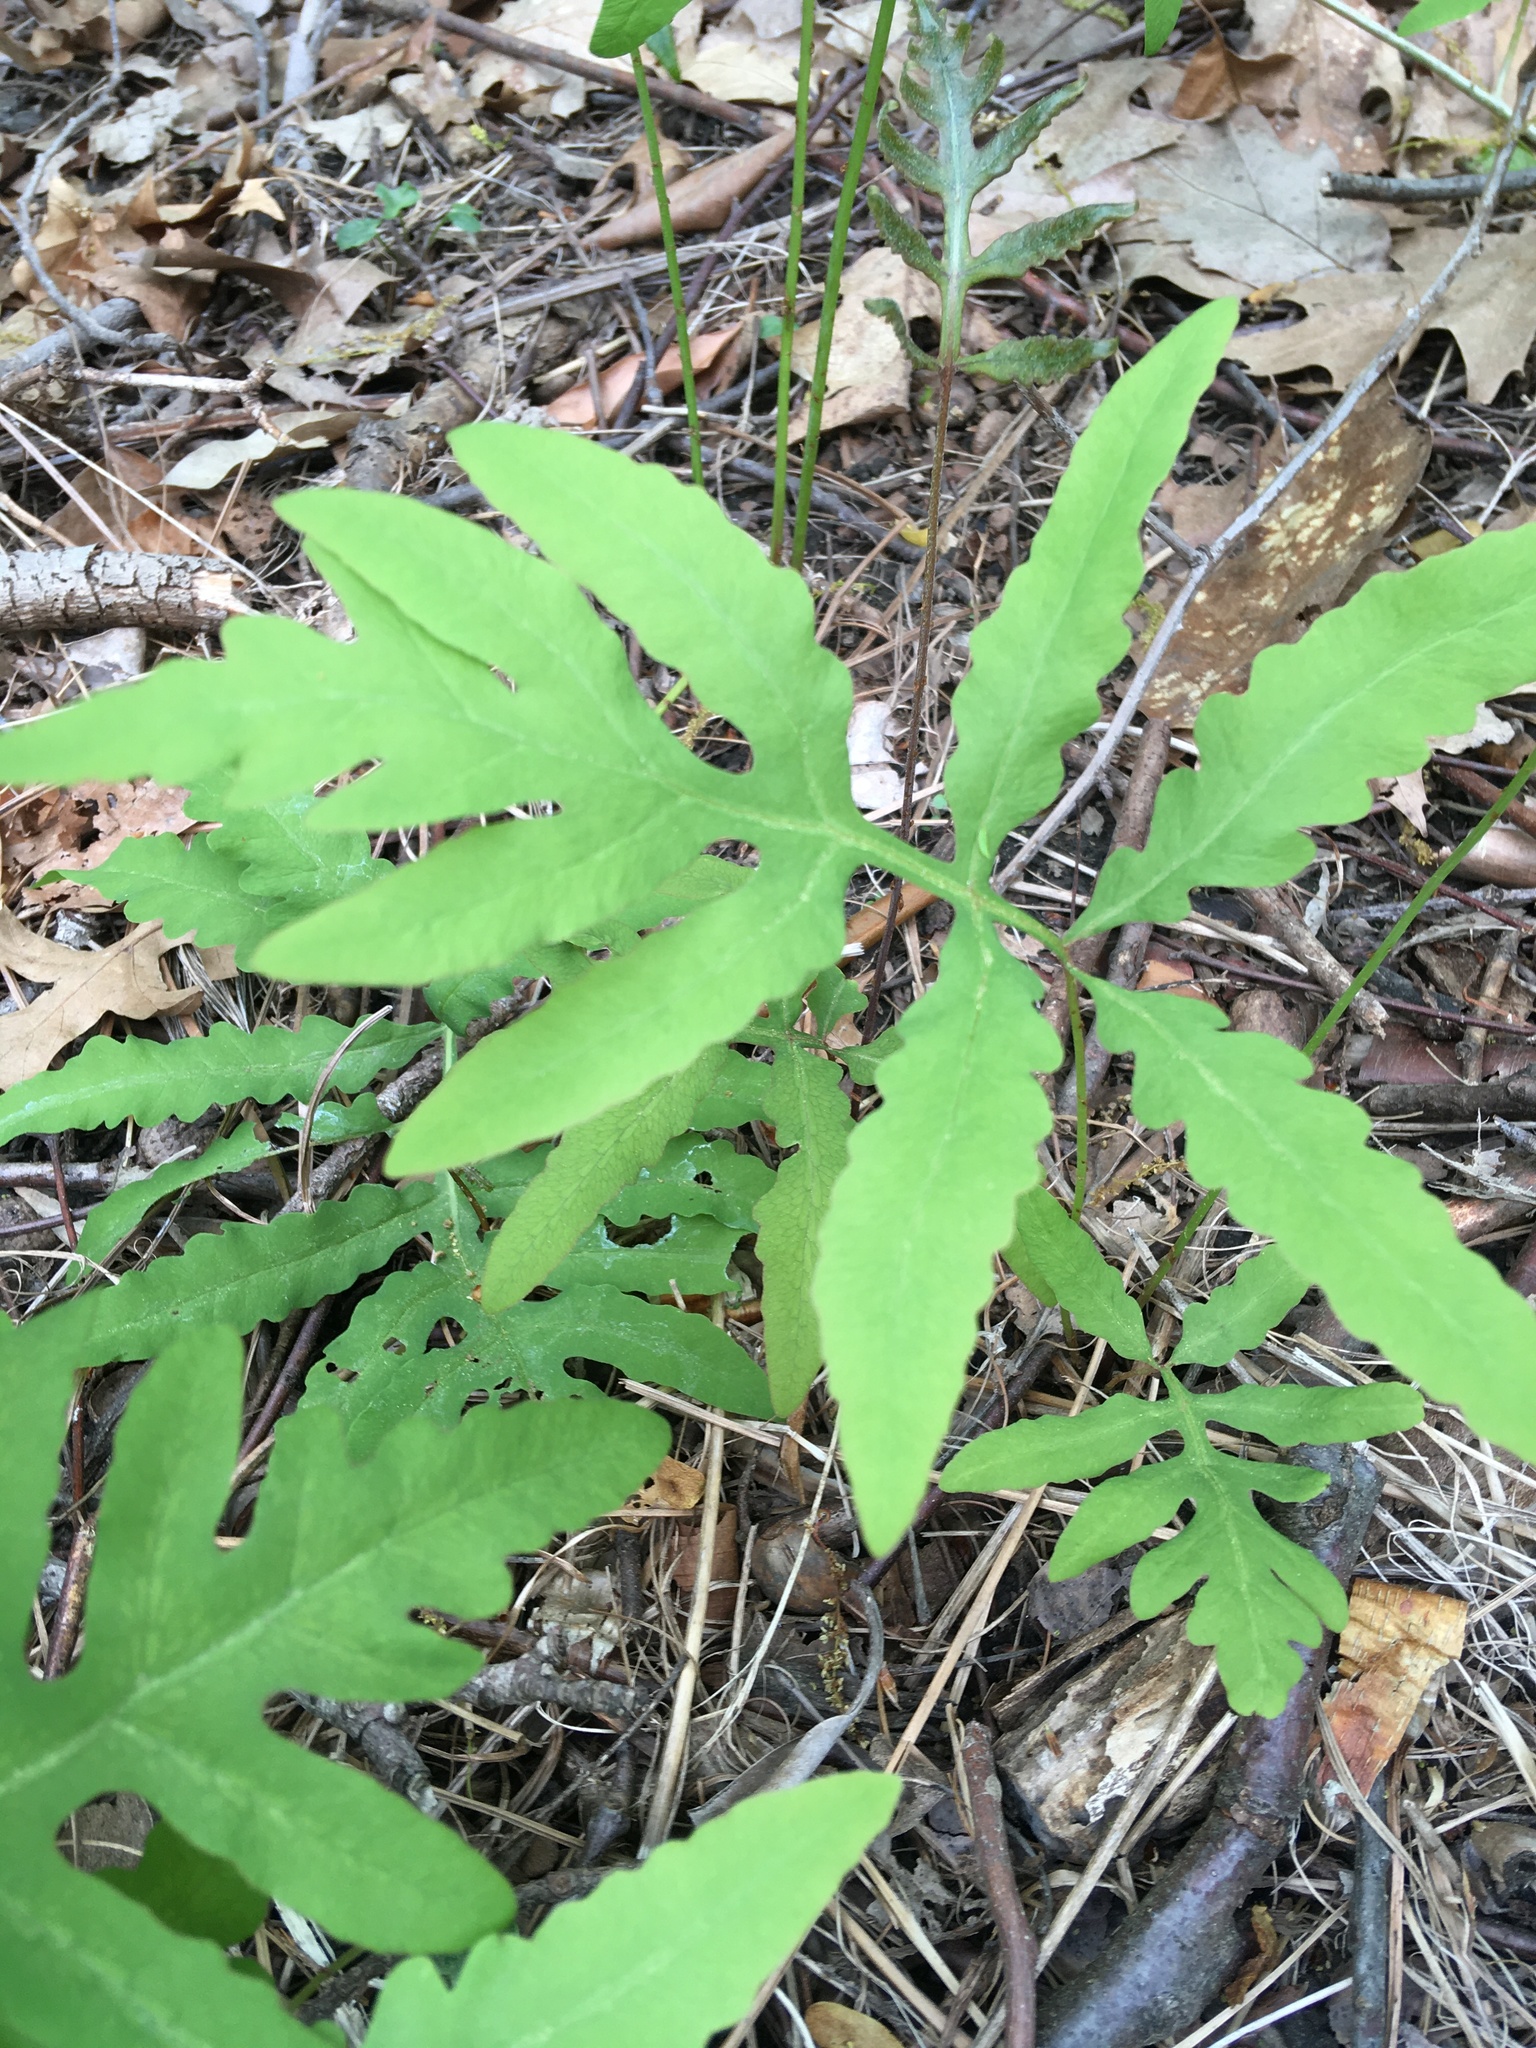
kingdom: Plantae
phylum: Tracheophyta
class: Polypodiopsida
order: Polypodiales
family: Onocleaceae
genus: Onoclea
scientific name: Onoclea sensibilis
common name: Sensitive fern
